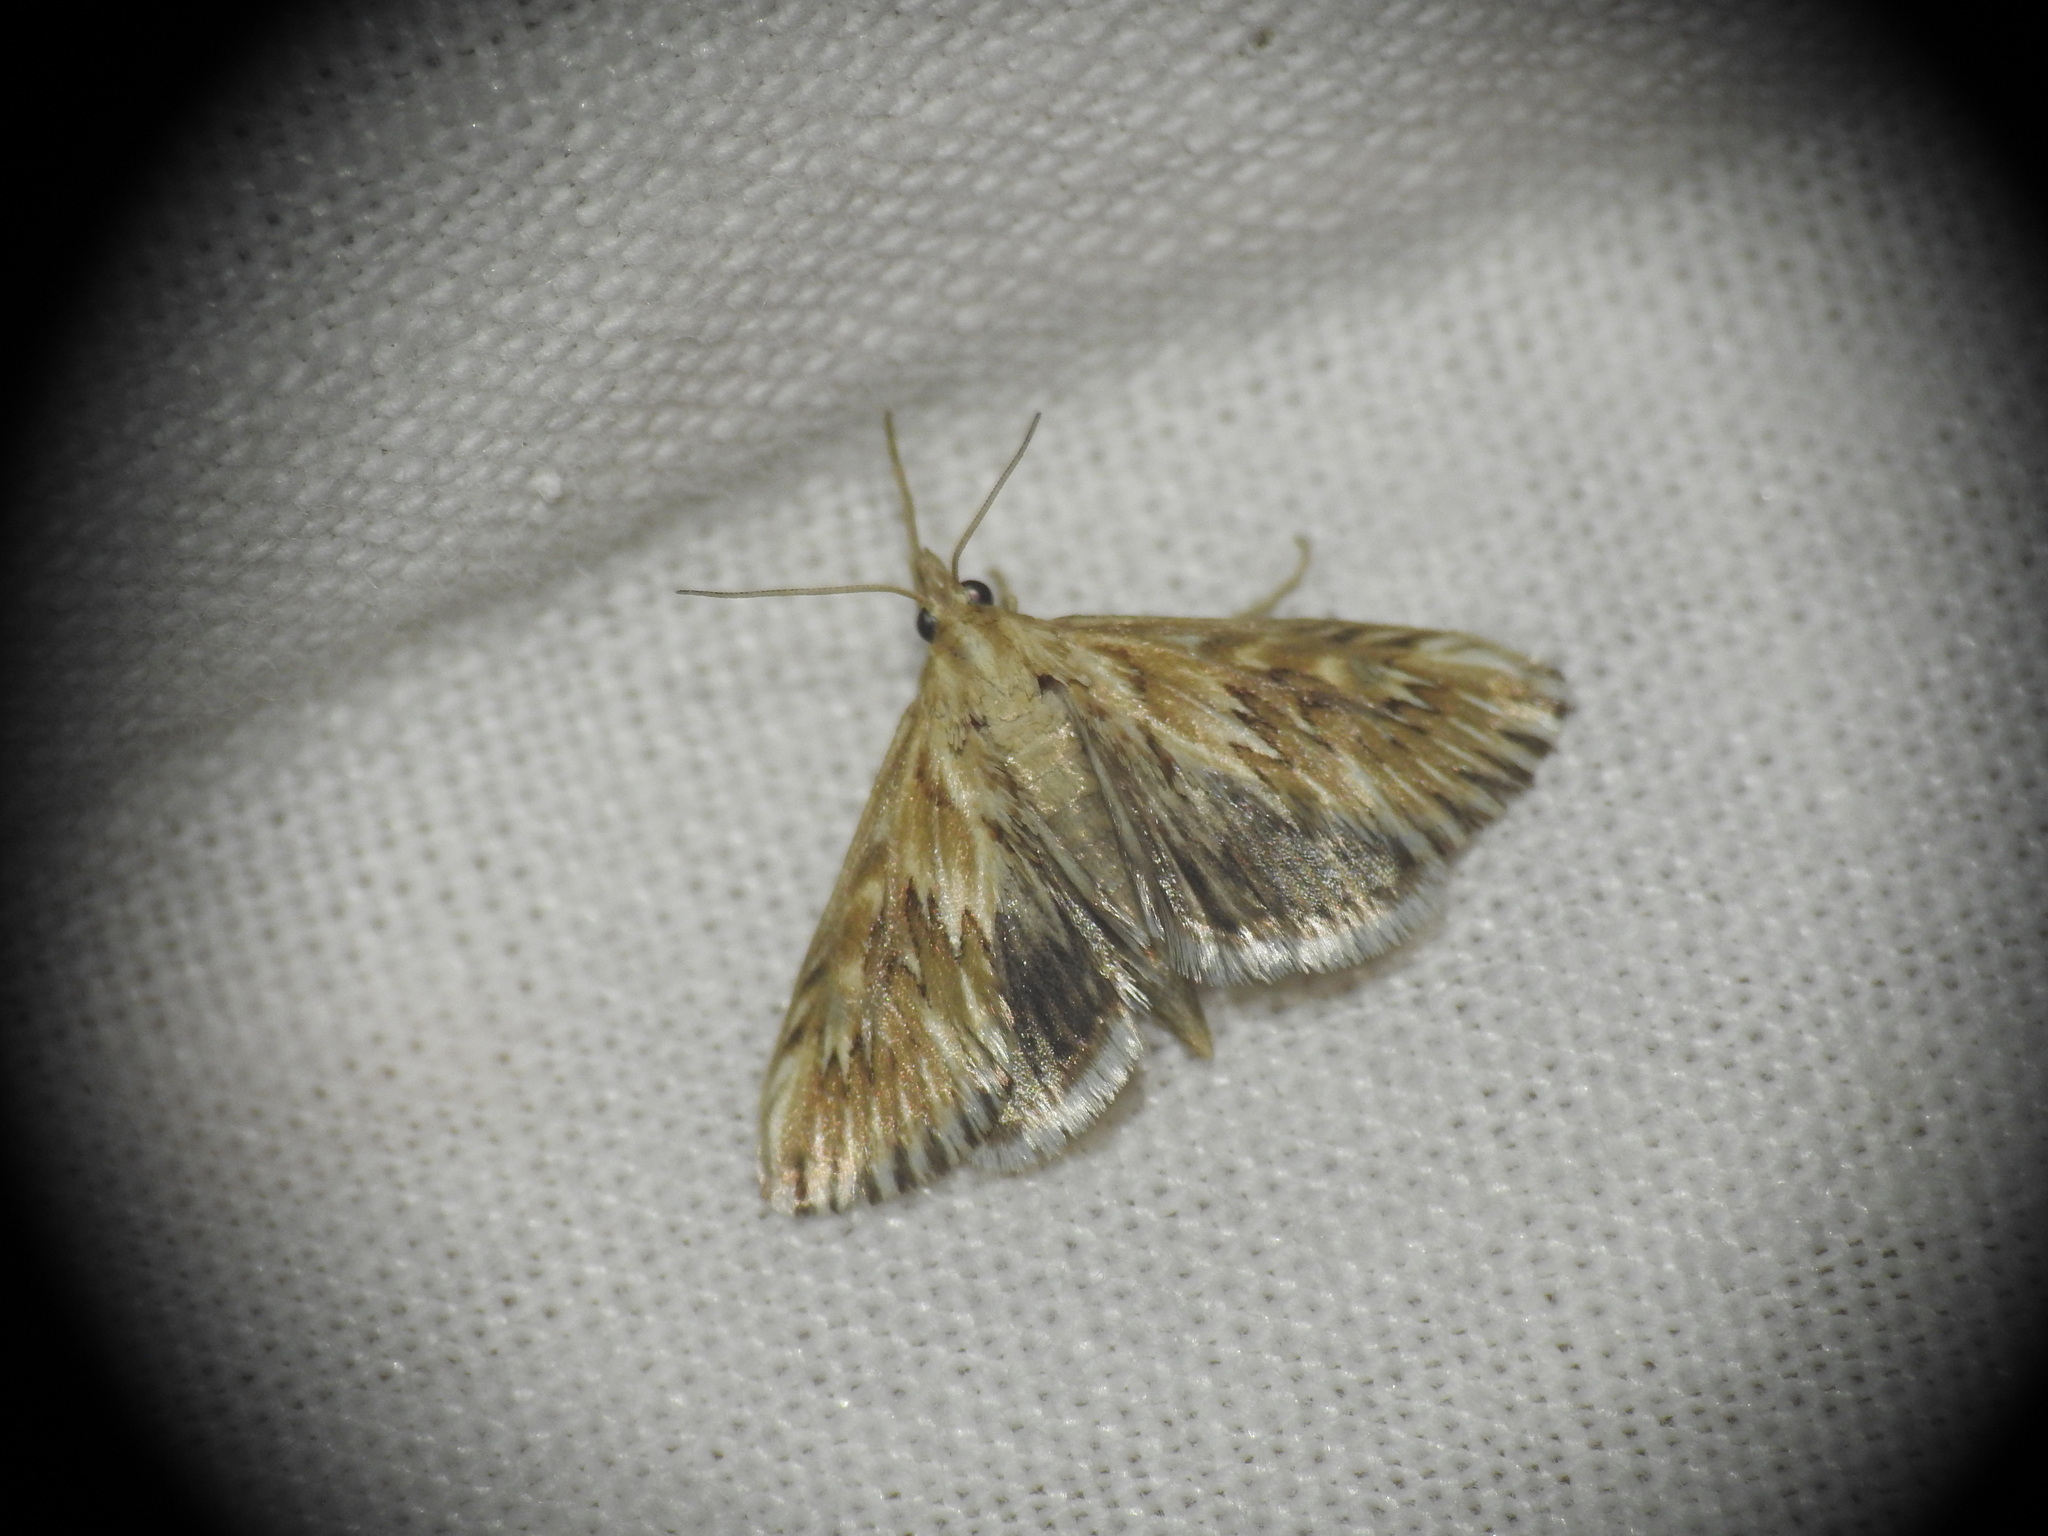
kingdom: Animalia
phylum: Arthropoda
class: Insecta
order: Lepidoptera
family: Crambidae
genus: Cynaeda
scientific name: Cynaeda dentalis
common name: Starry pearl
